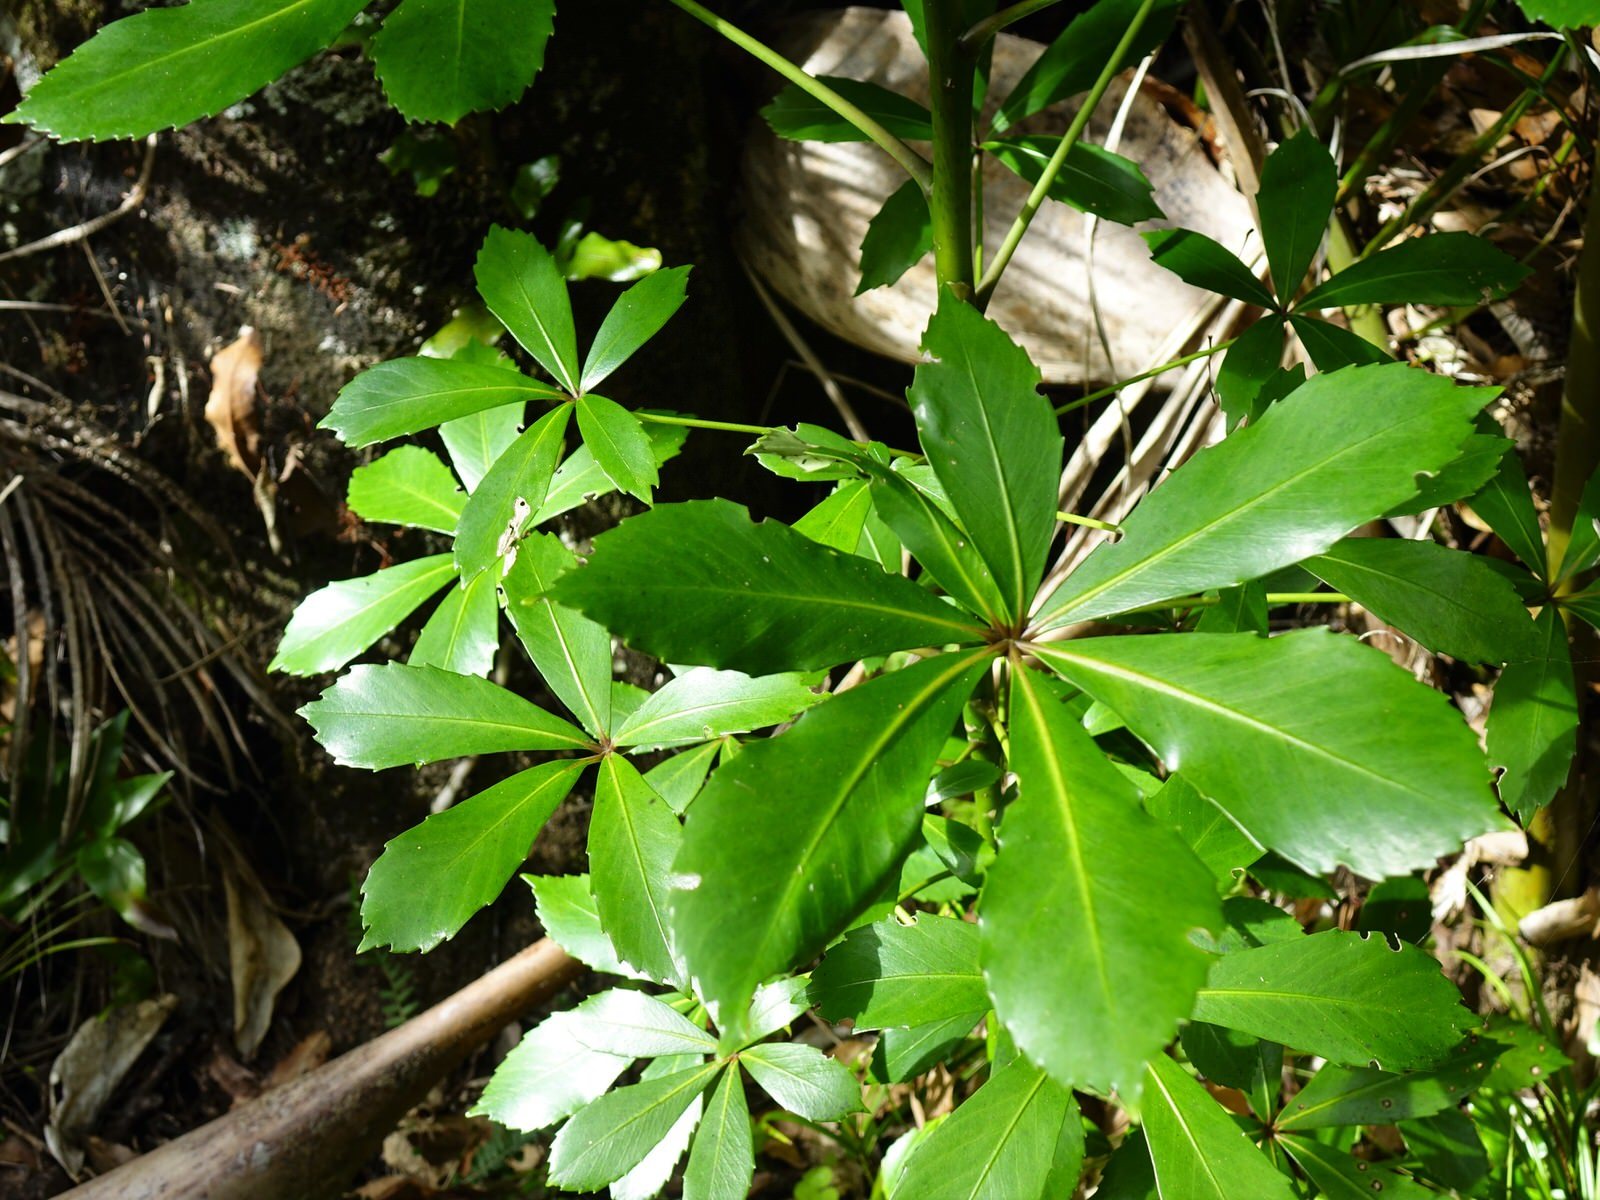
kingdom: Plantae
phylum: Tracheophyta
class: Magnoliopsida
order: Apiales
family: Araliaceae
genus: Pseudopanax
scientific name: Pseudopanax lessonii
